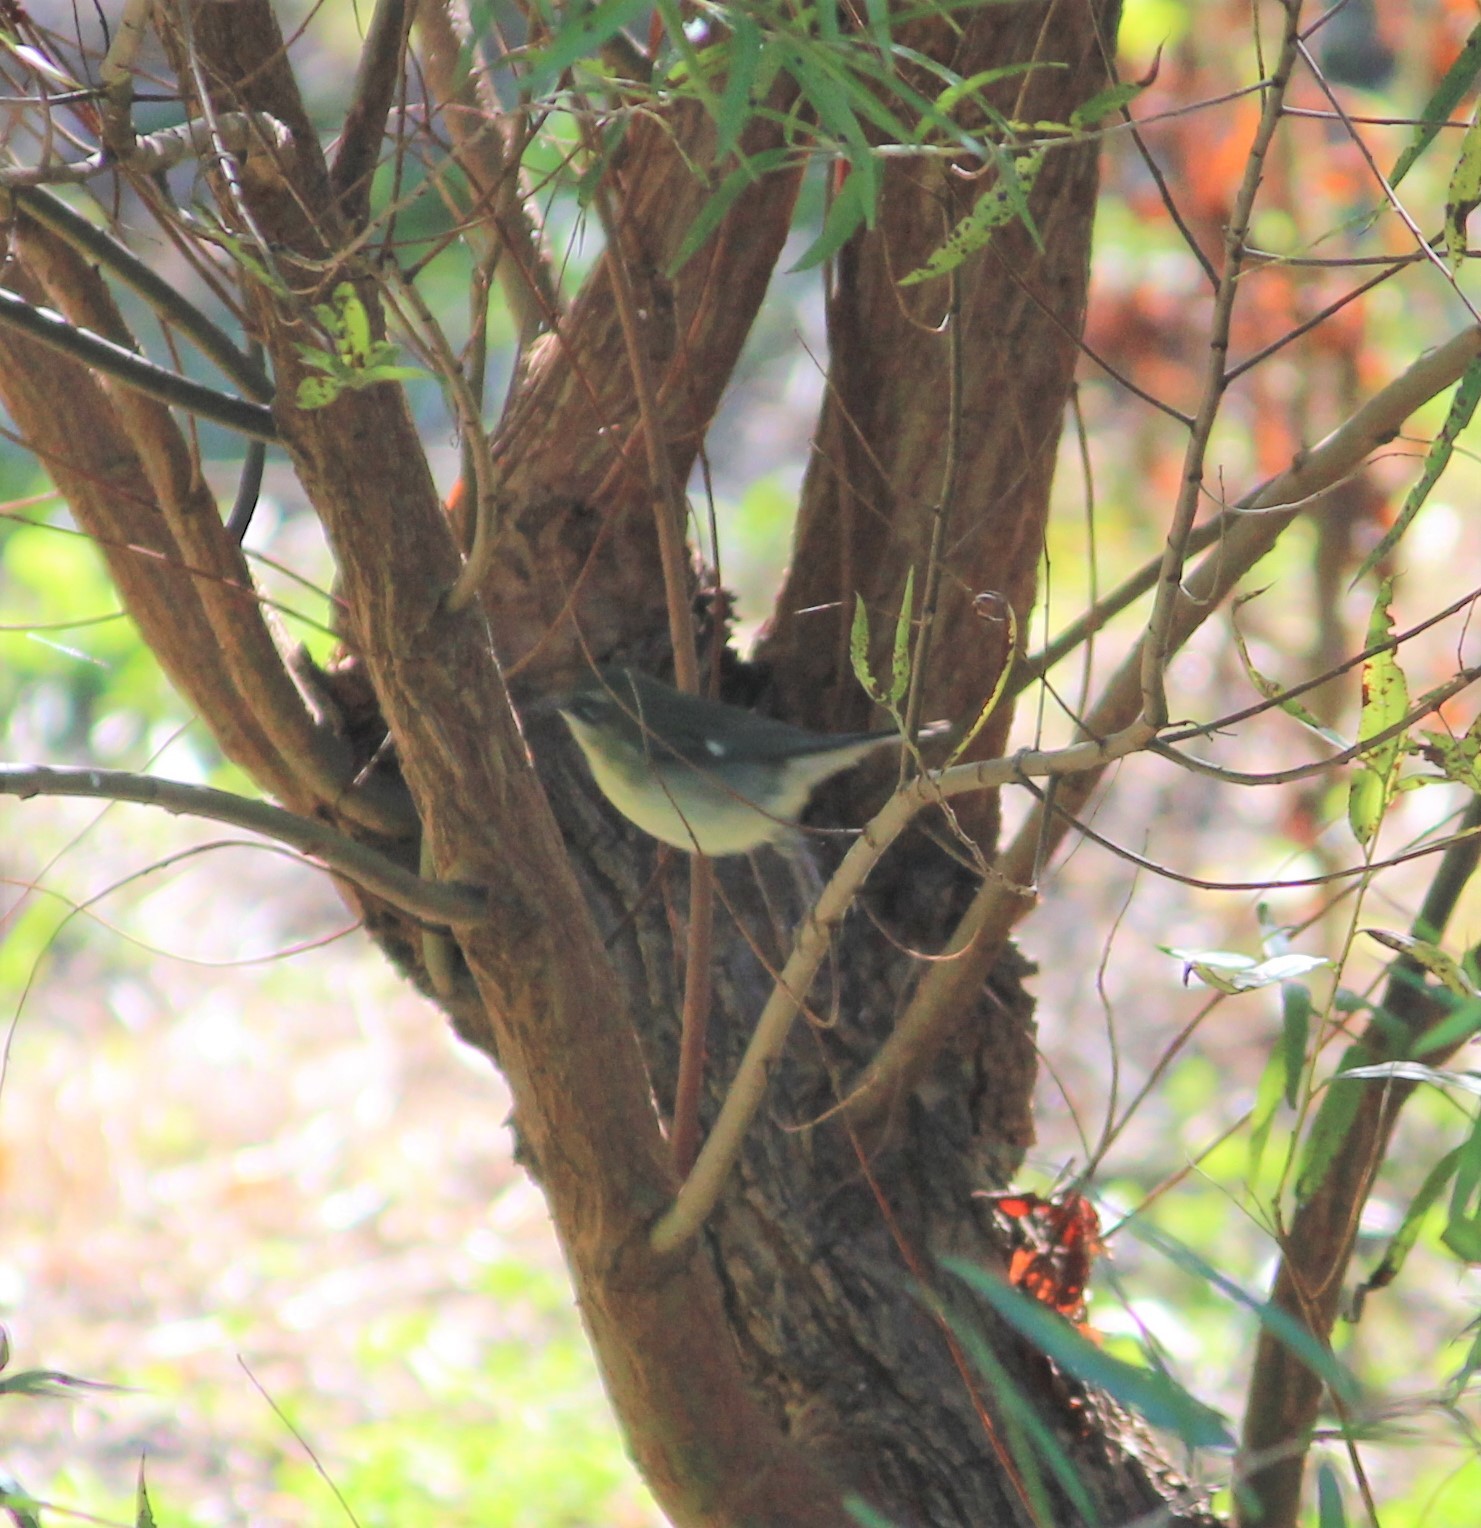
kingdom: Animalia
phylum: Chordata
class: Aves
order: Passeriformes
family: Parulidae
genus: Setophaga
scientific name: Setophaga caerulescens
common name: Black-throated blue warbler
